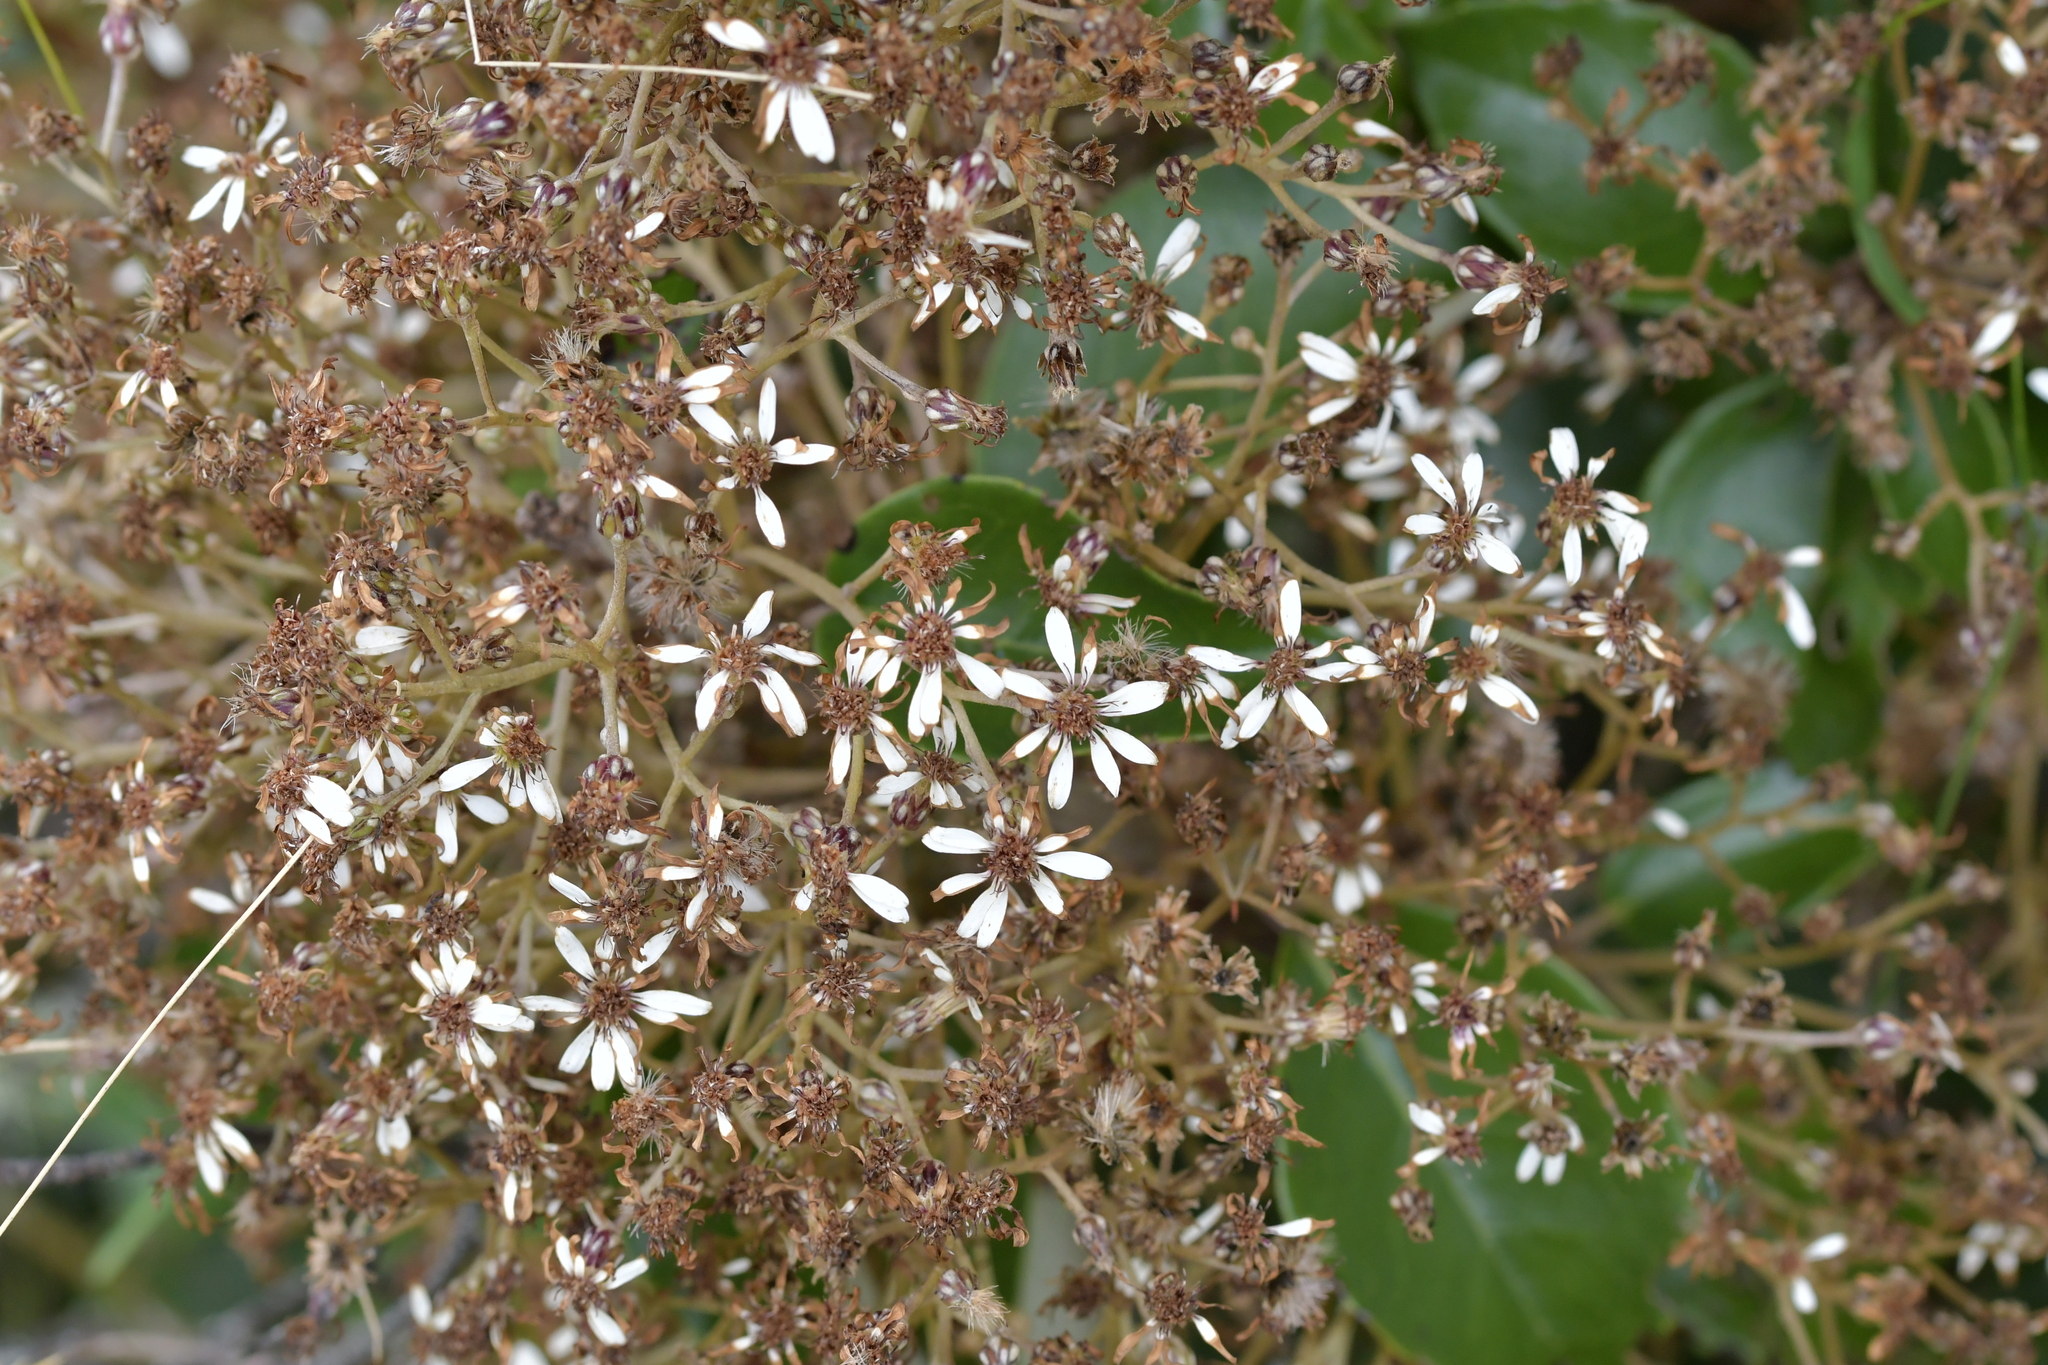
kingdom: Plantae
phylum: Tracheophyta
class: Magnoliopsida
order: Asterales
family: Asteraceae
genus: Olearia
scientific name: Olearia arborescens
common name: Glossy tree daisy
